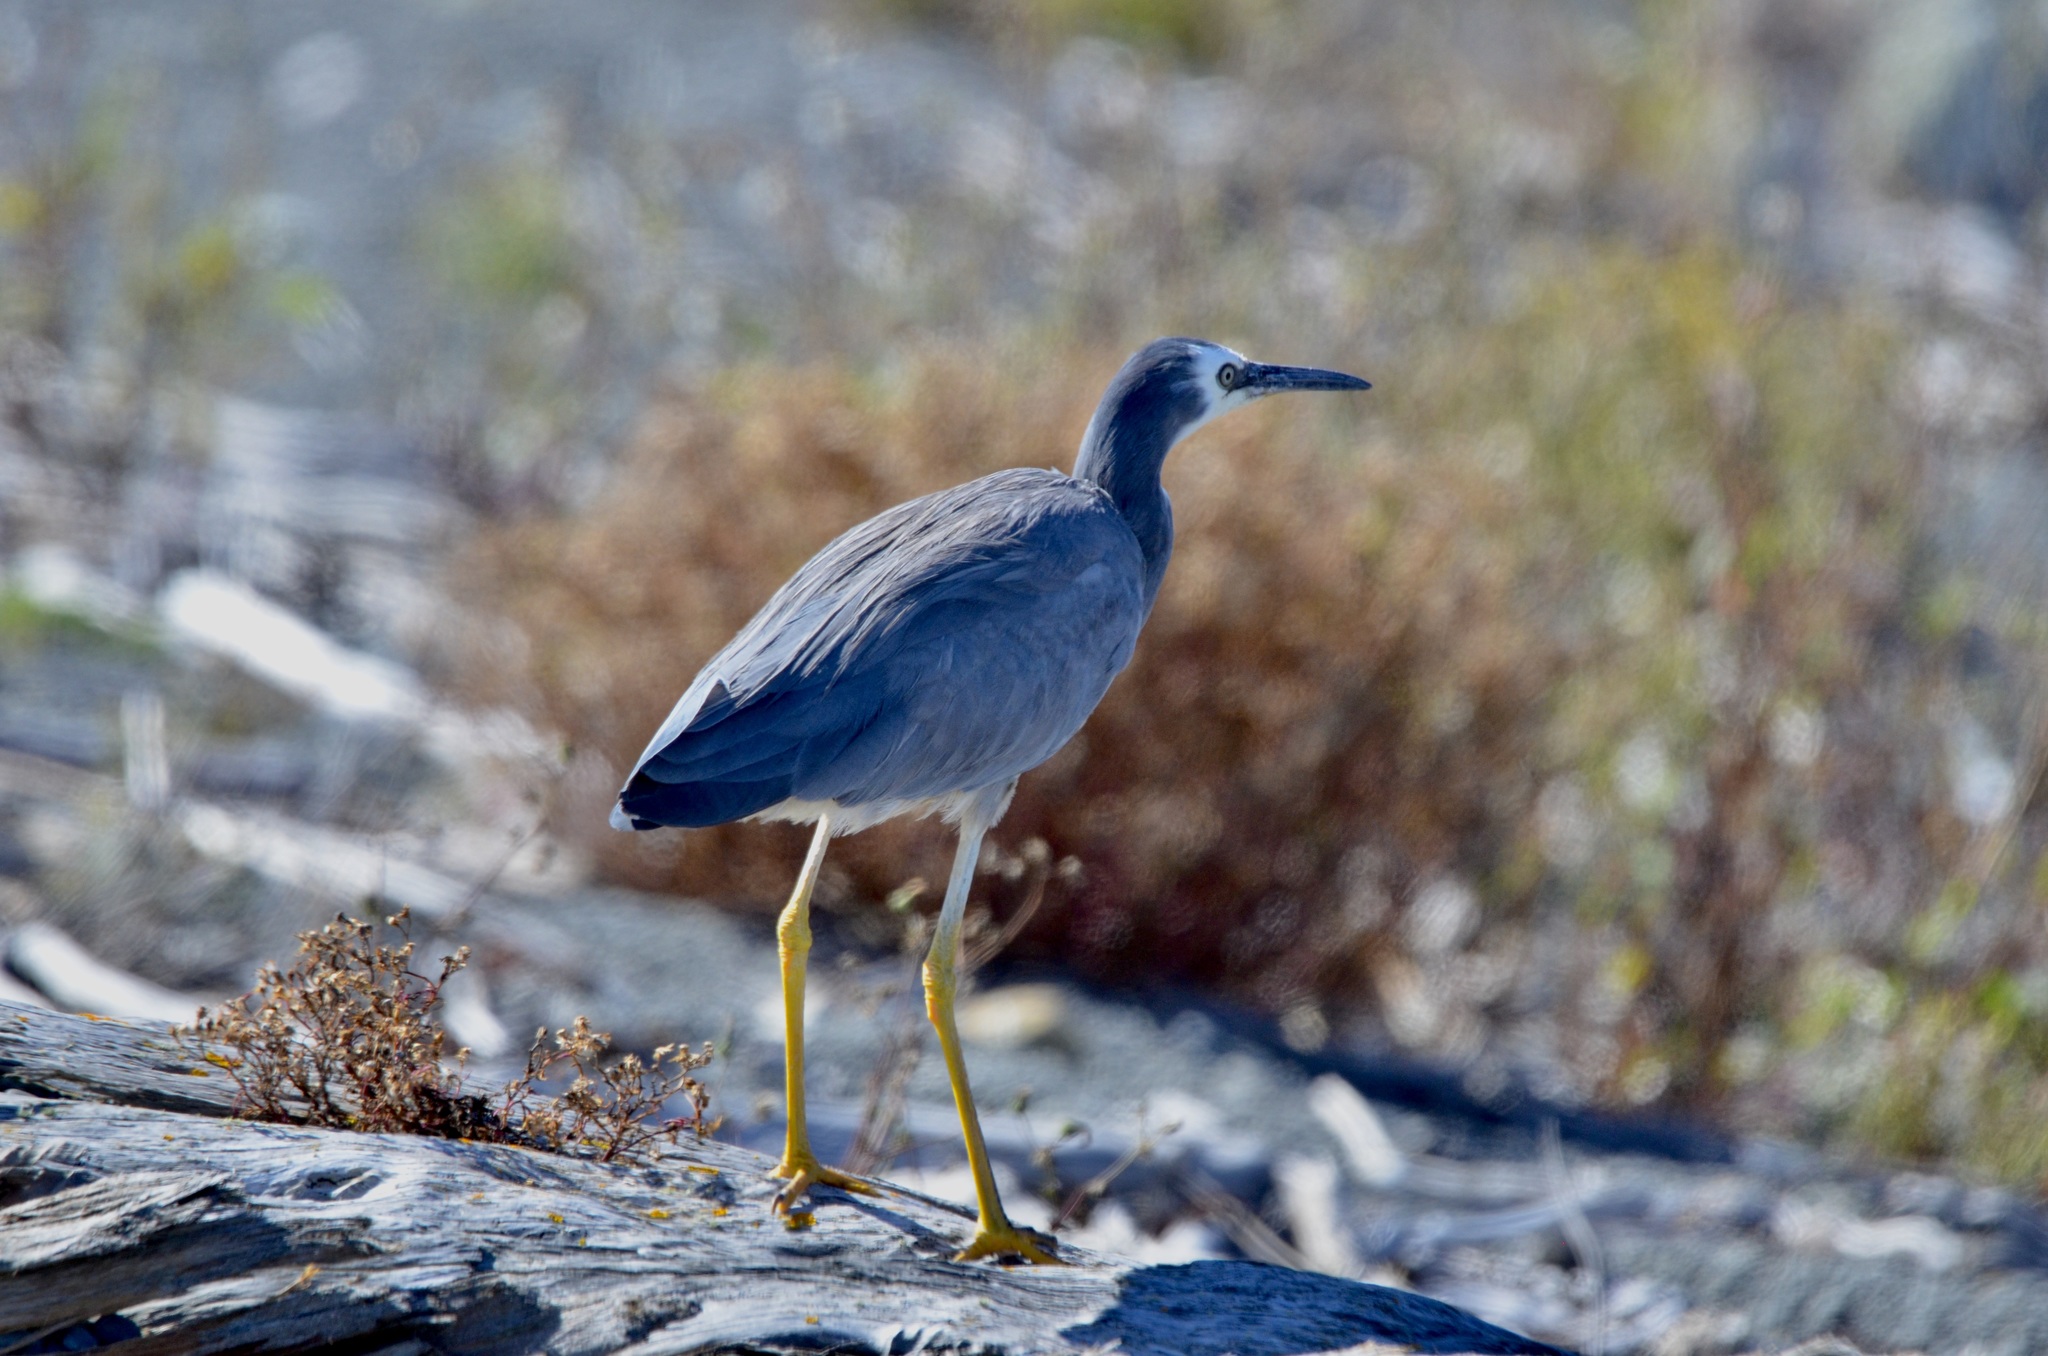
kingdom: Animalia
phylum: Chordata
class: Aves
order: Pelecaniformes
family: Ardeidae
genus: Egretta
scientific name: Egretta novaehollandiae
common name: White-faced heron
